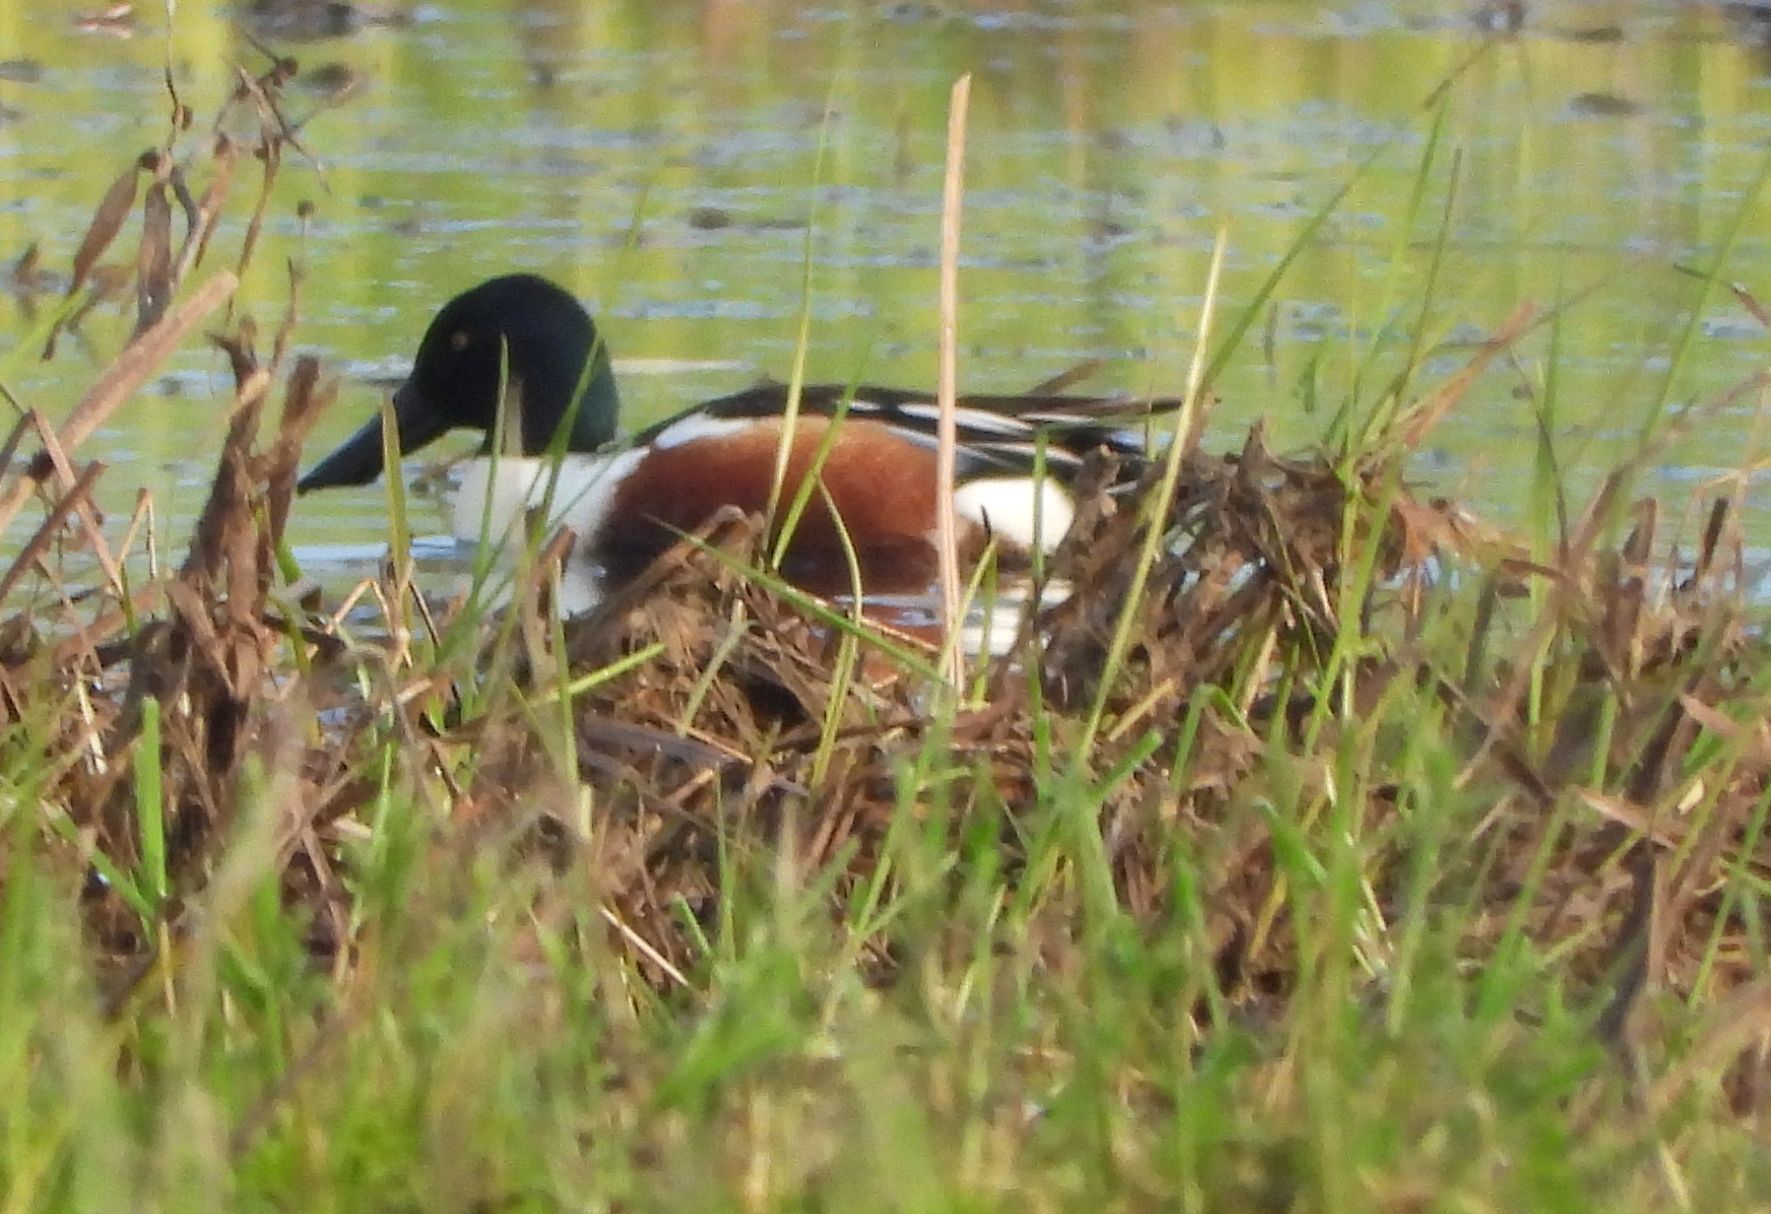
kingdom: Animalia
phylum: Chordata
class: Aves
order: Anseriformes
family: Anatidae
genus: Spatula
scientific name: Spatula clypeata
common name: Northern shoveler
